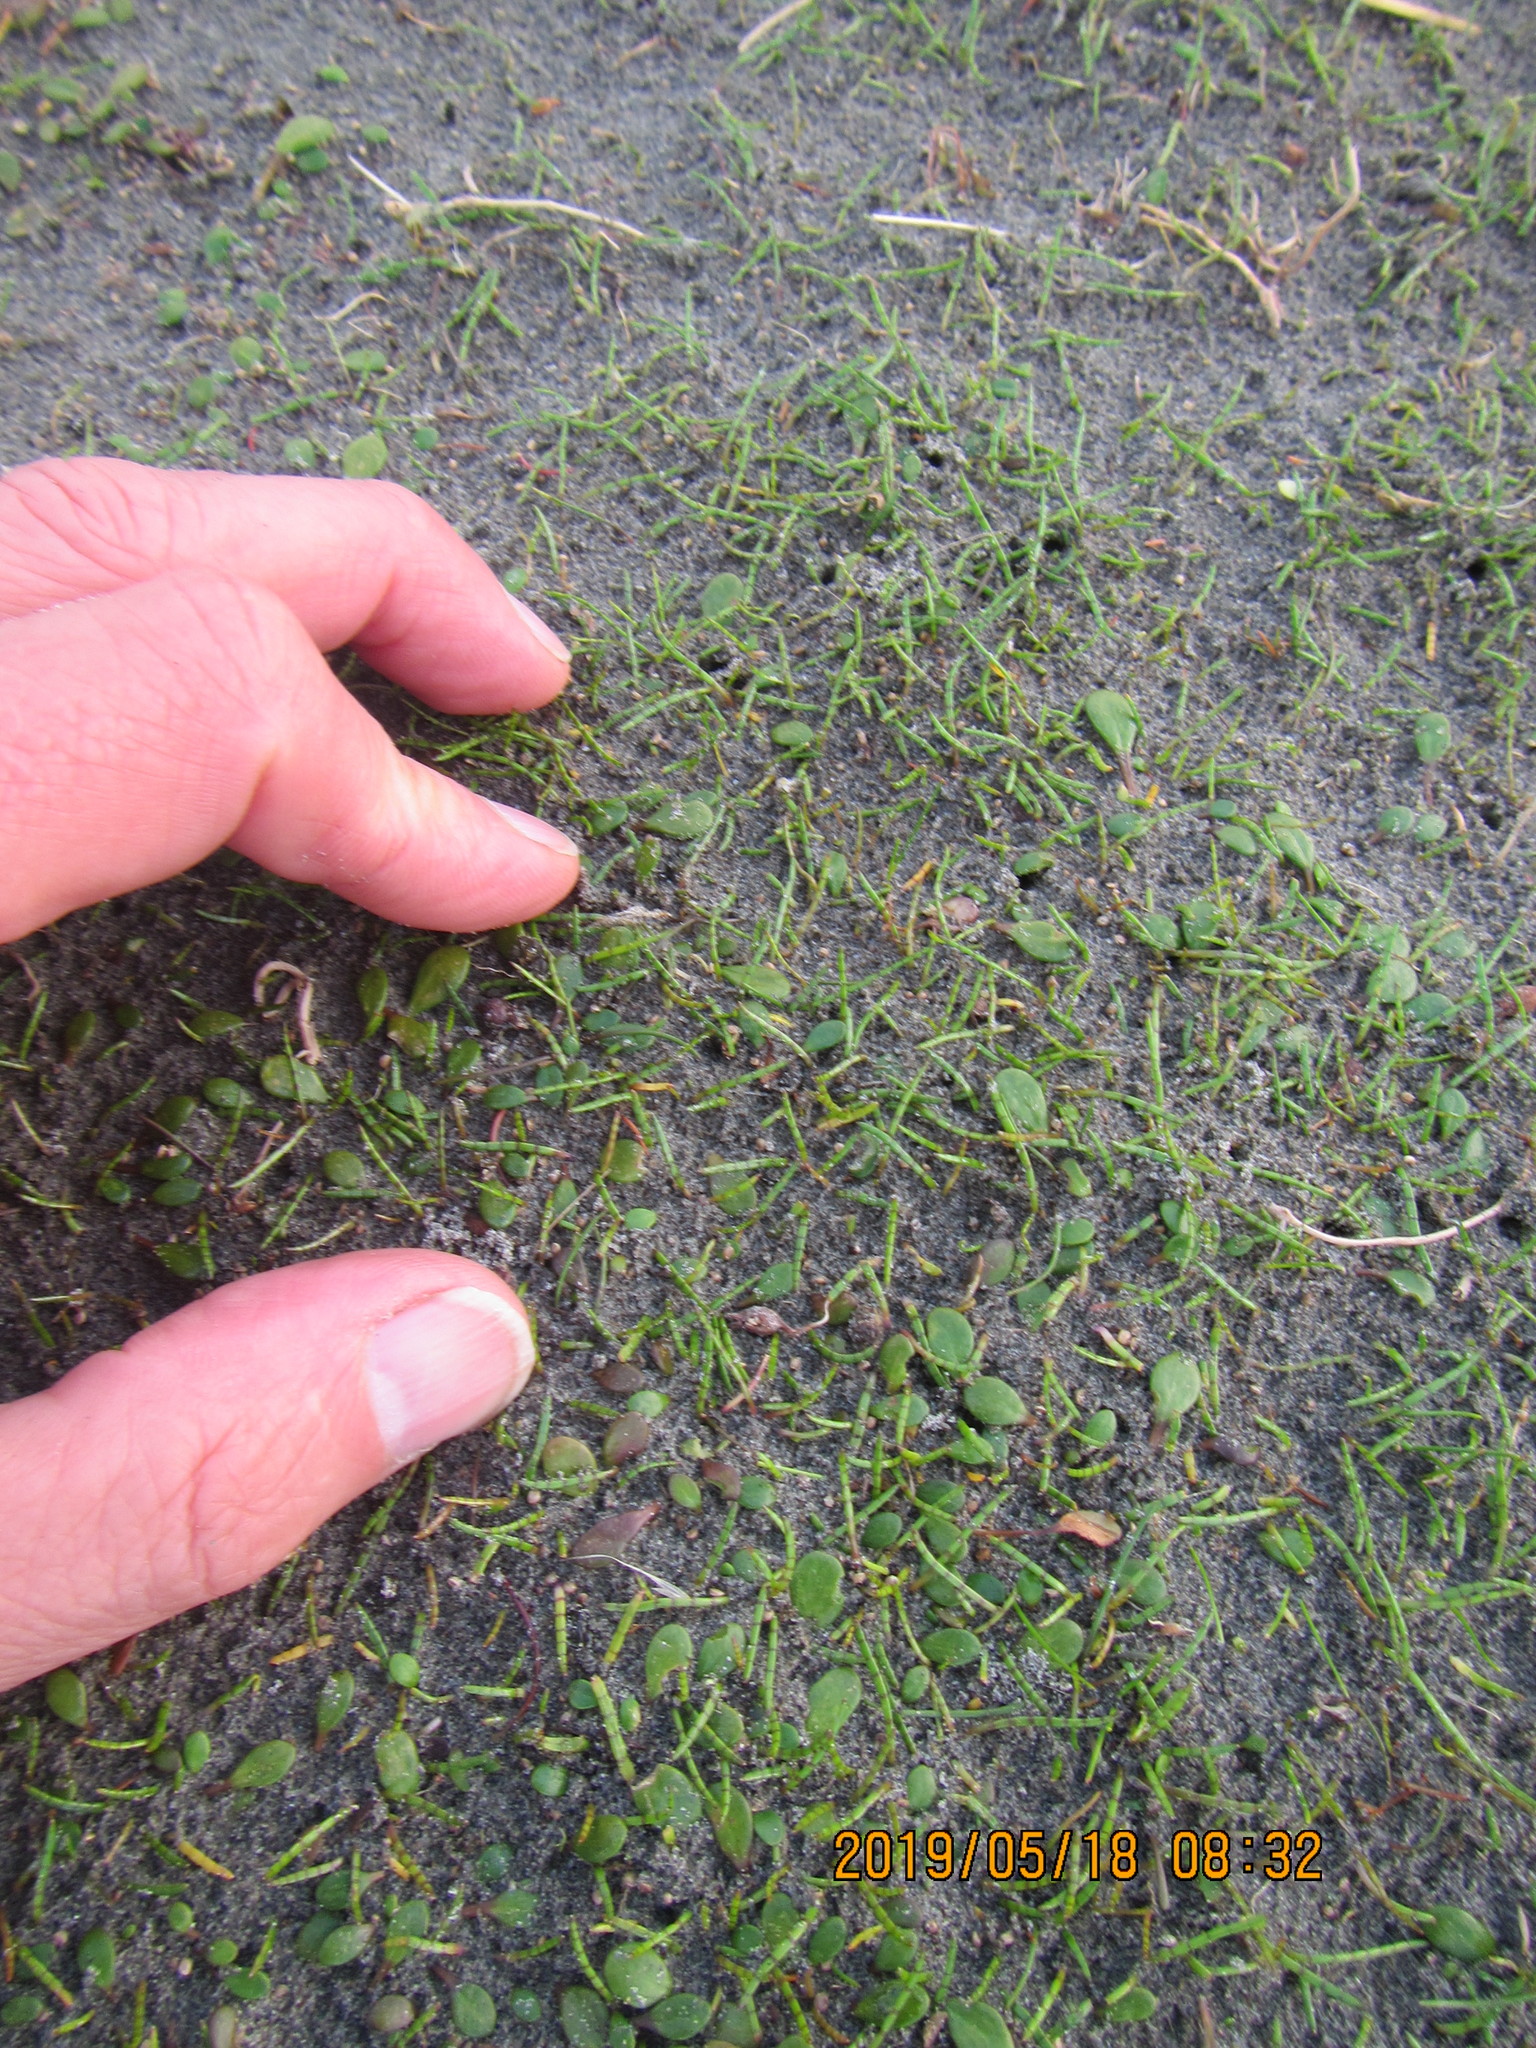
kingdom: Plantae
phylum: Tracheophyta
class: Magnoliopsida
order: Apiales
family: Apiaceae
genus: Lilaeopsis
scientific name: Lilaeopsis novae-zelandiae
